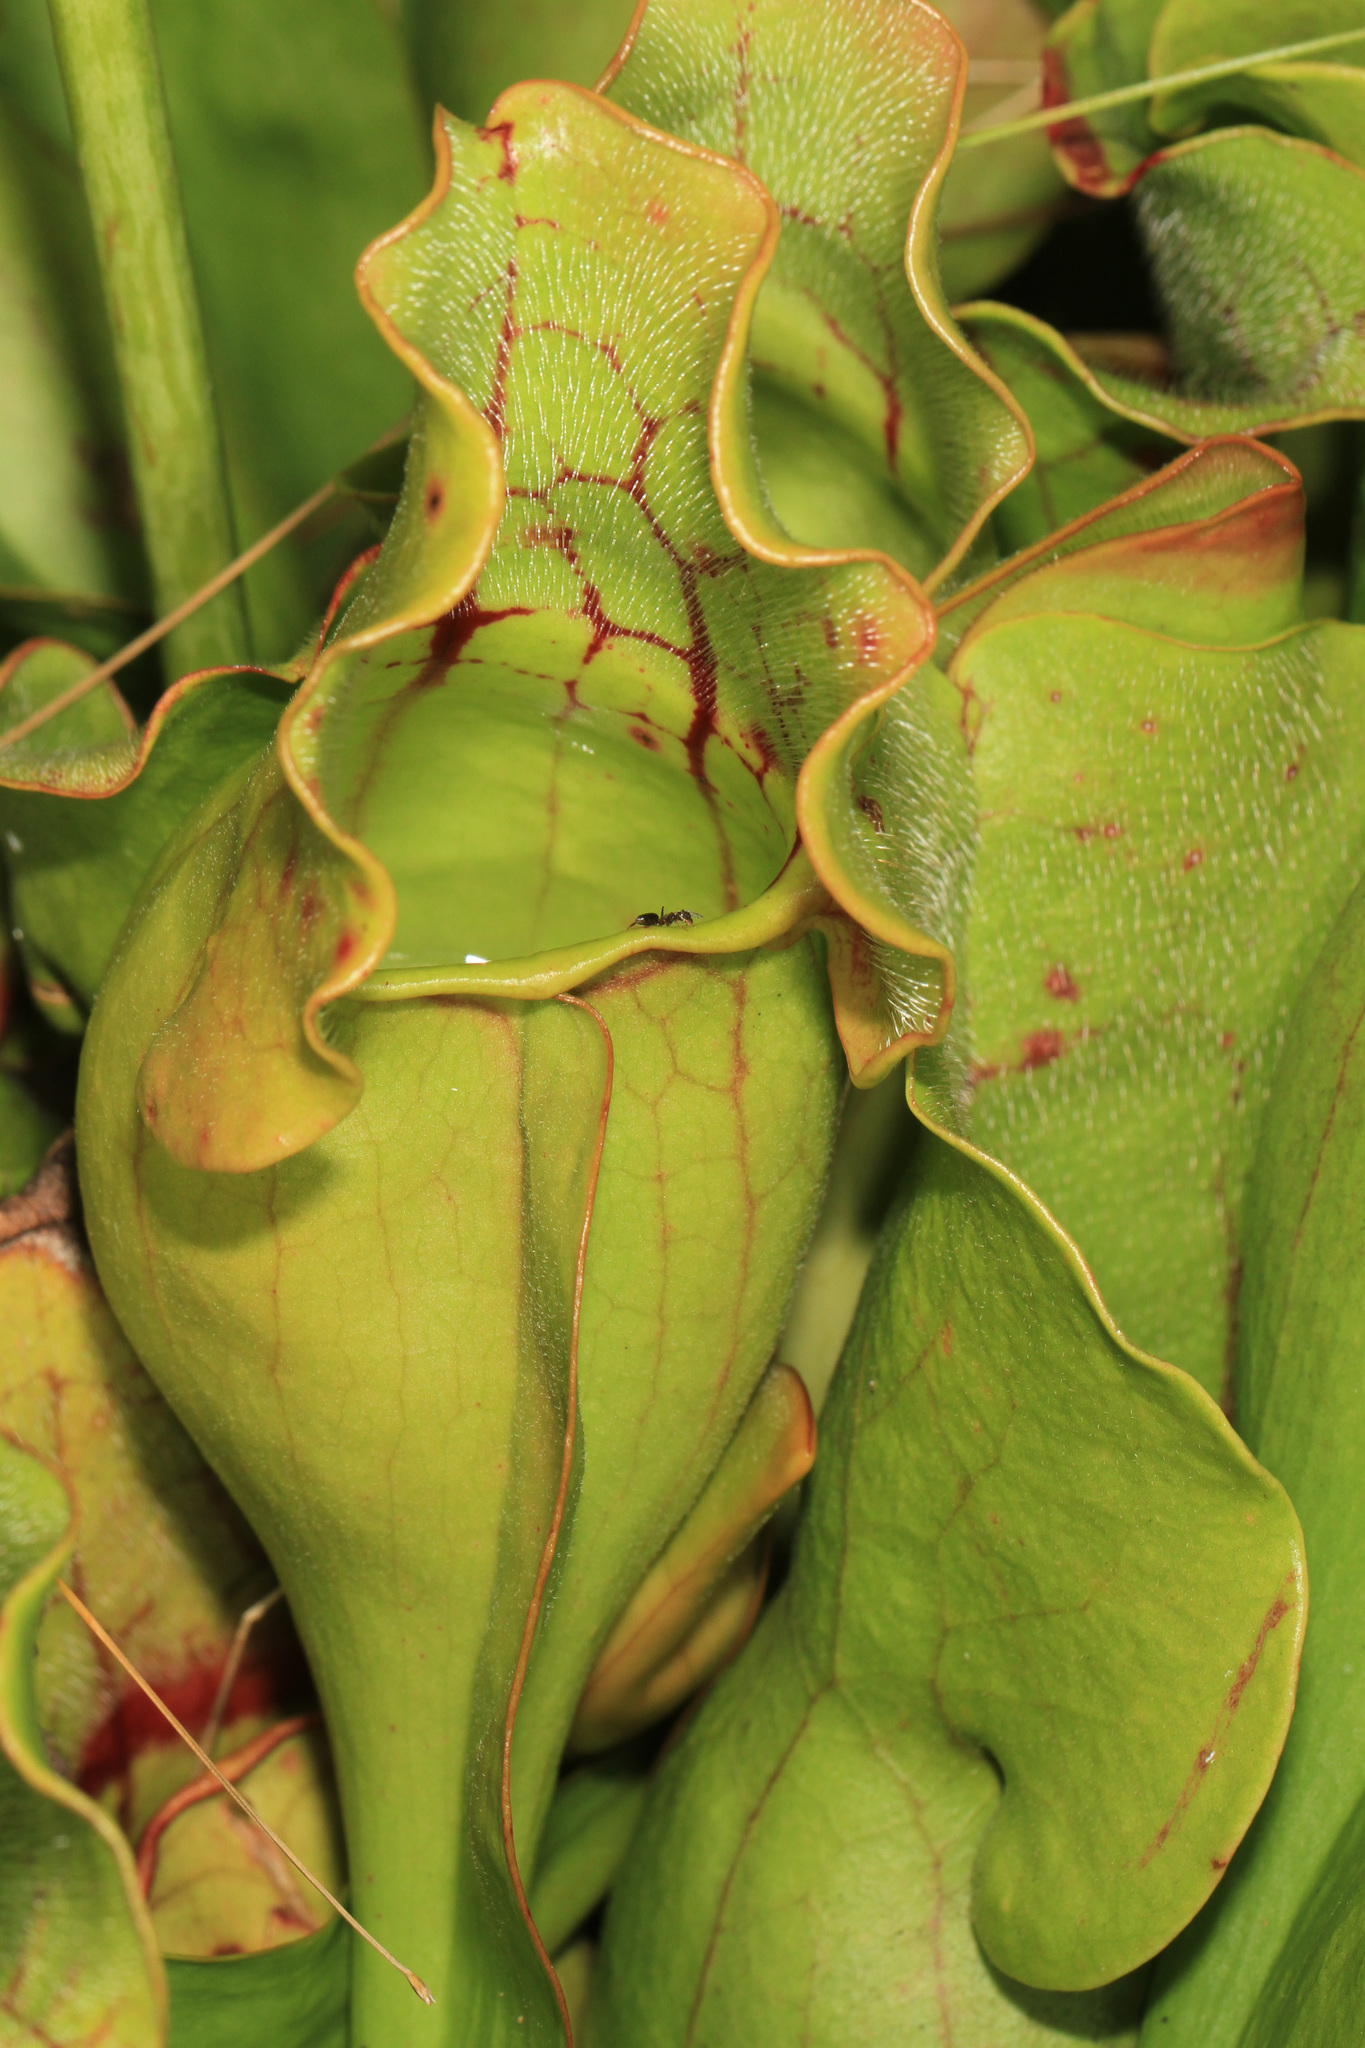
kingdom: Plantae
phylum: Tracheophyta
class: Magnoliopsida
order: Ericales
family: Sarraceniaceae
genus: Sarracenia
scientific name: Sarracenia purpurea
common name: Pitcherplant
